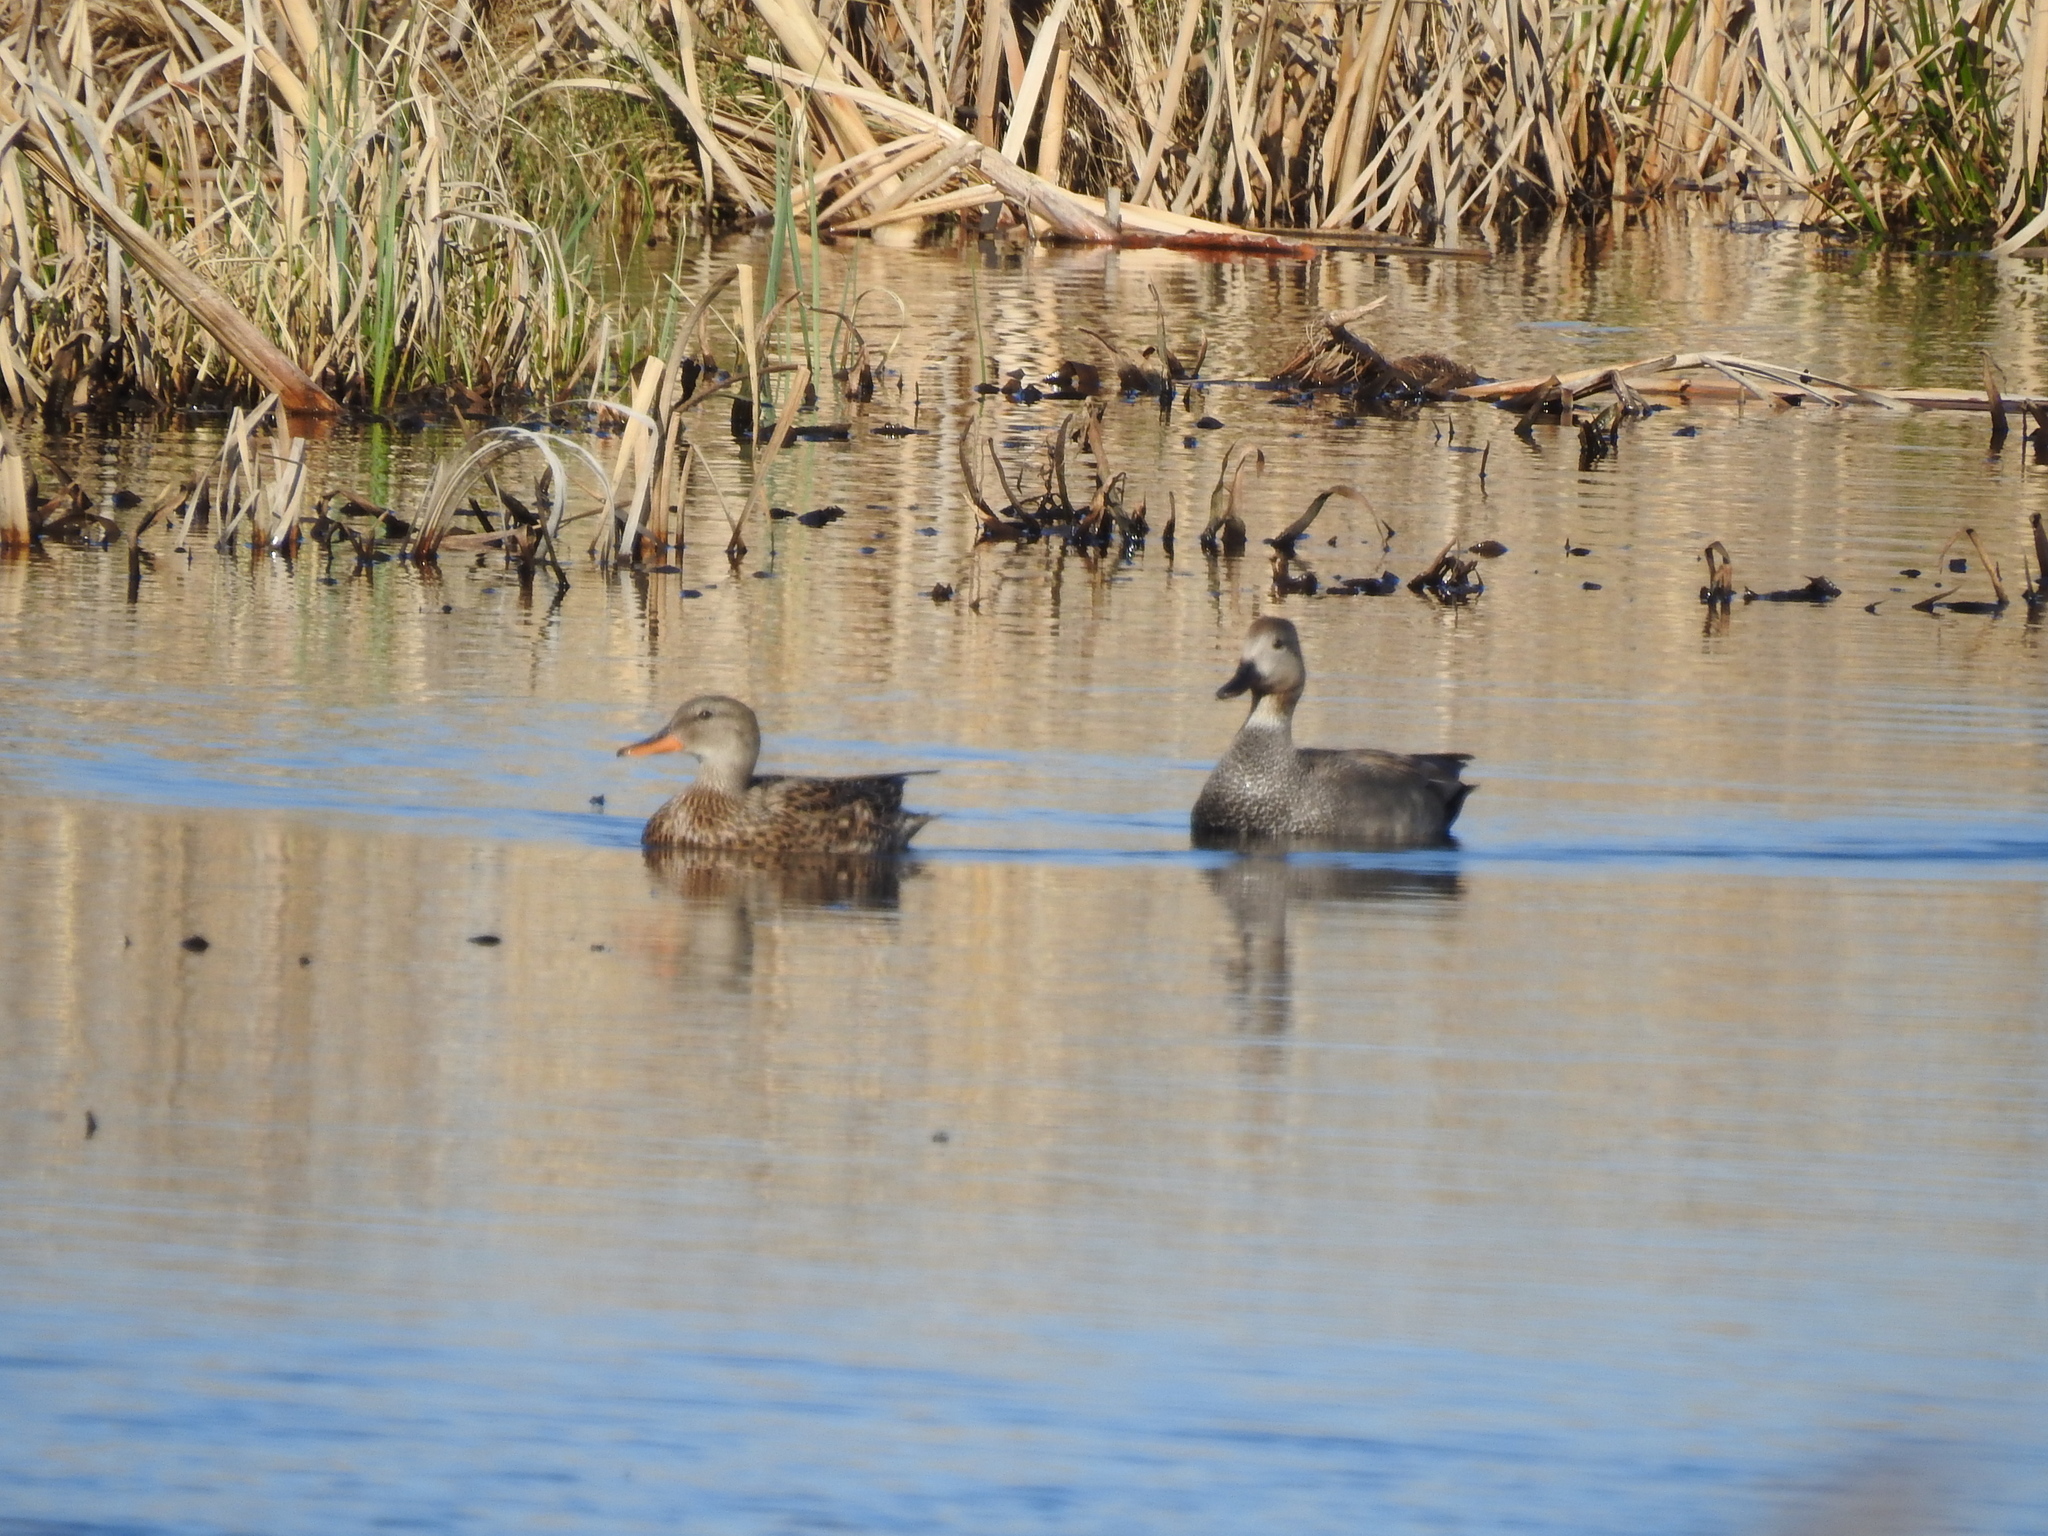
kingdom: Animalia
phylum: Chordata
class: Aves
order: Anseriformes
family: Anatidae
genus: Mareca
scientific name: Mareca strepera
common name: Gadwall
